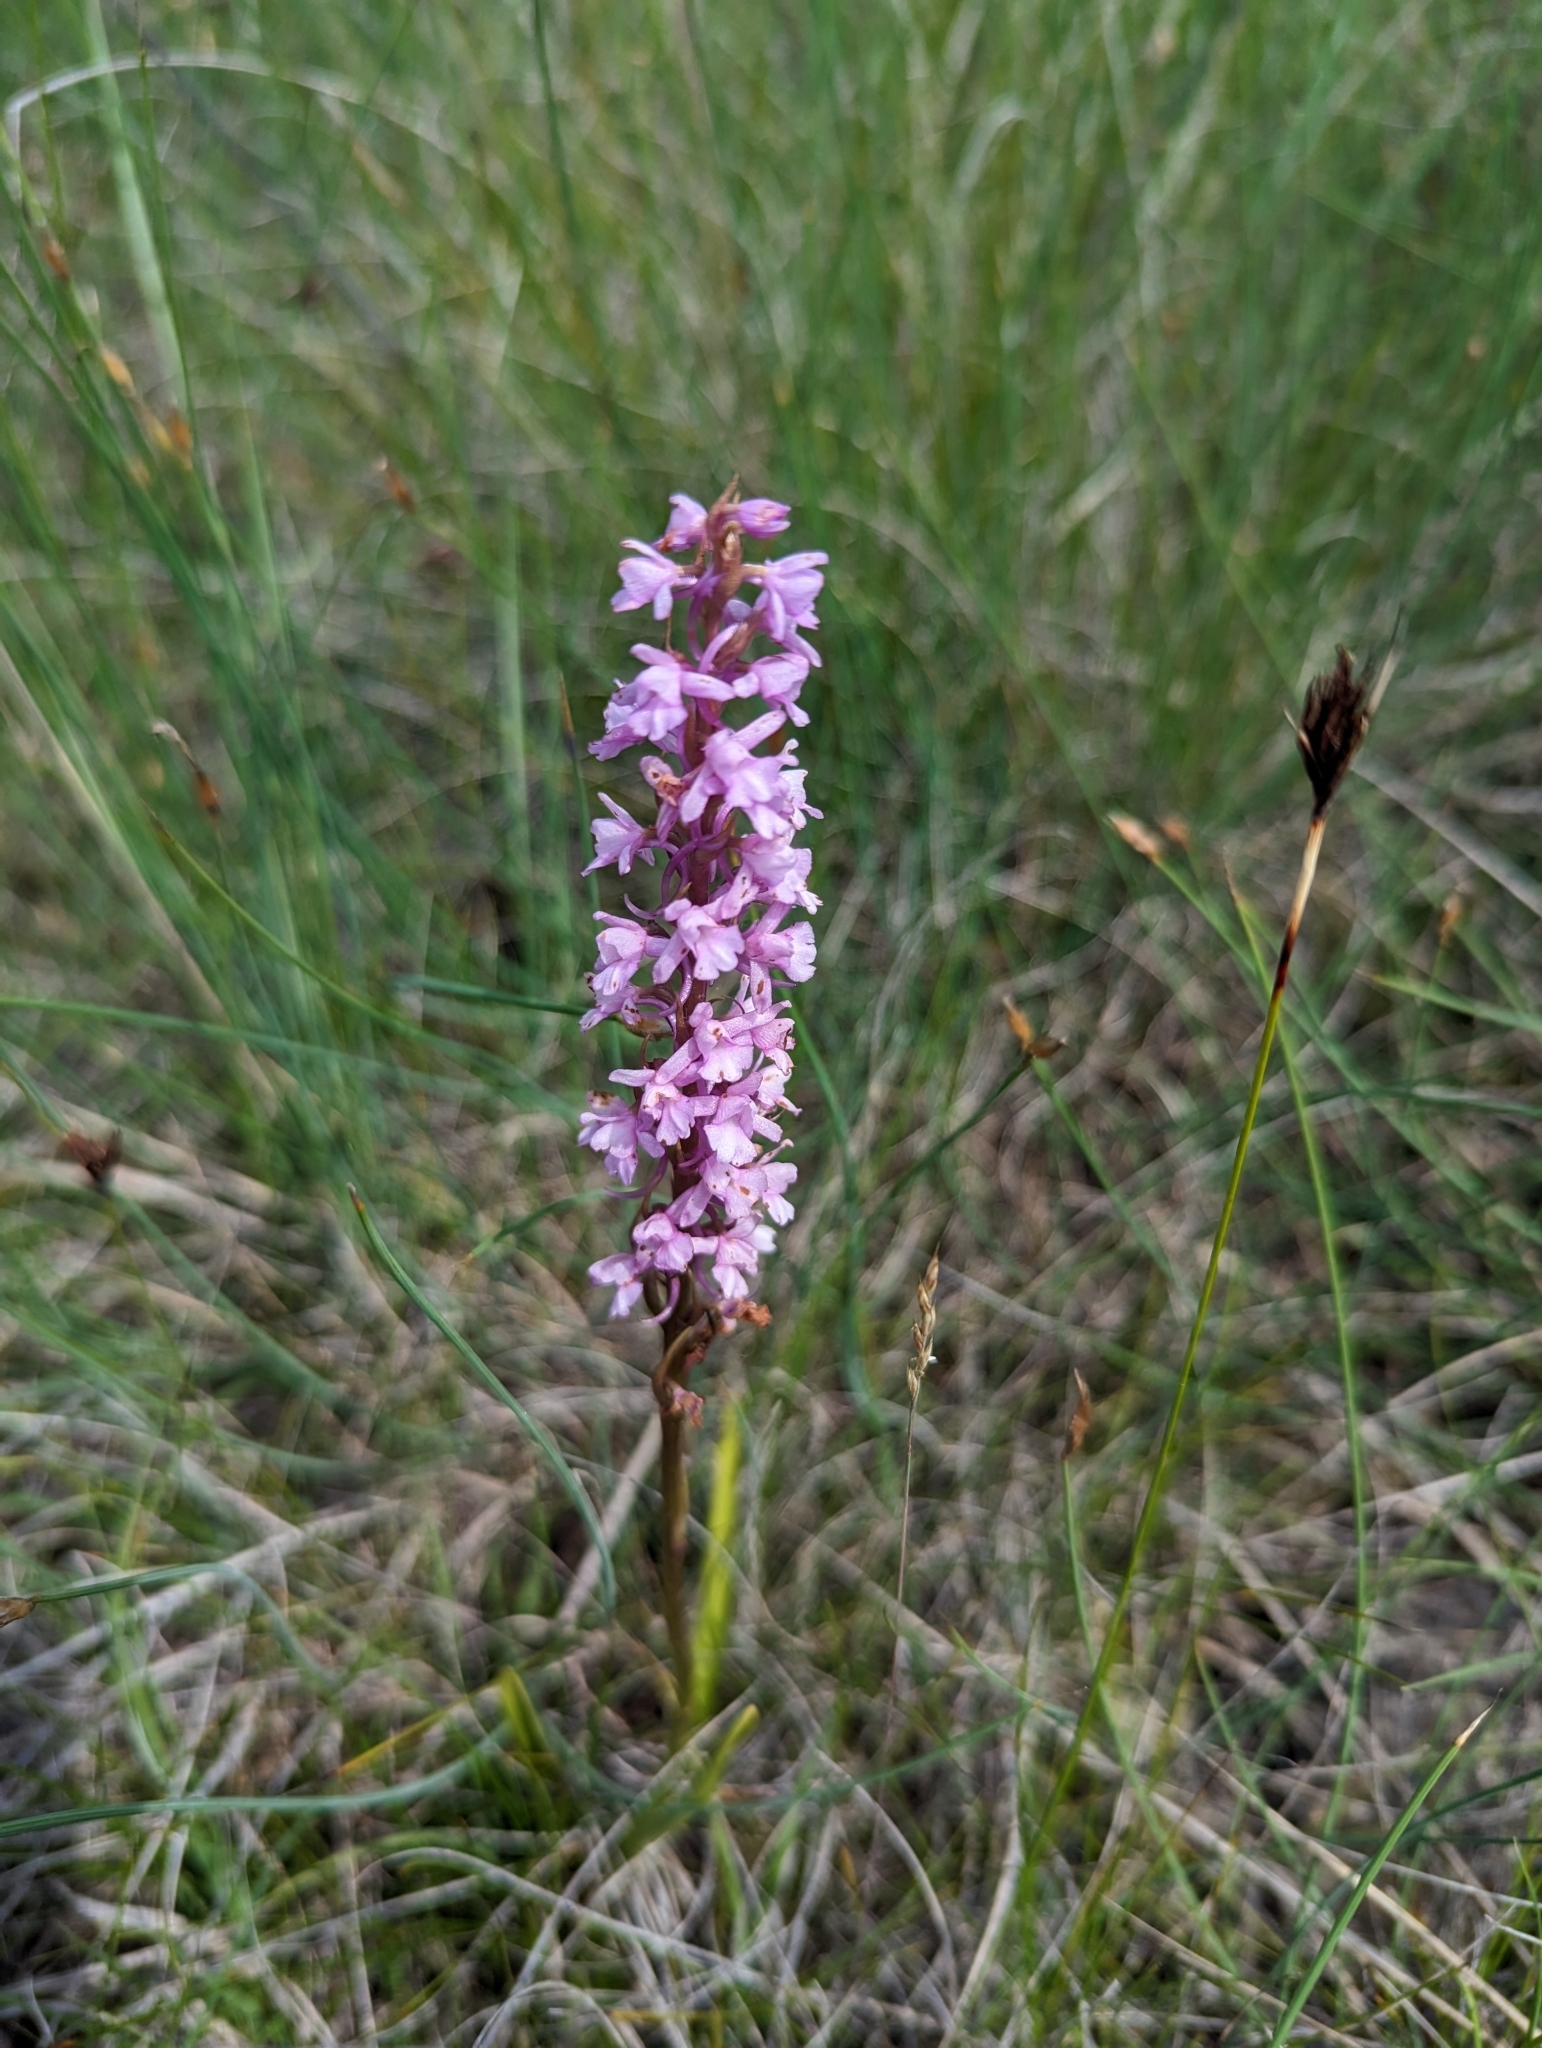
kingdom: Plantae
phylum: Tracheophyta
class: Liliopsida
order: Asparagales
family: Orchidaceae
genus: Gymnadenia
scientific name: Gymnadenia conopsea
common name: Fragrant orchid
